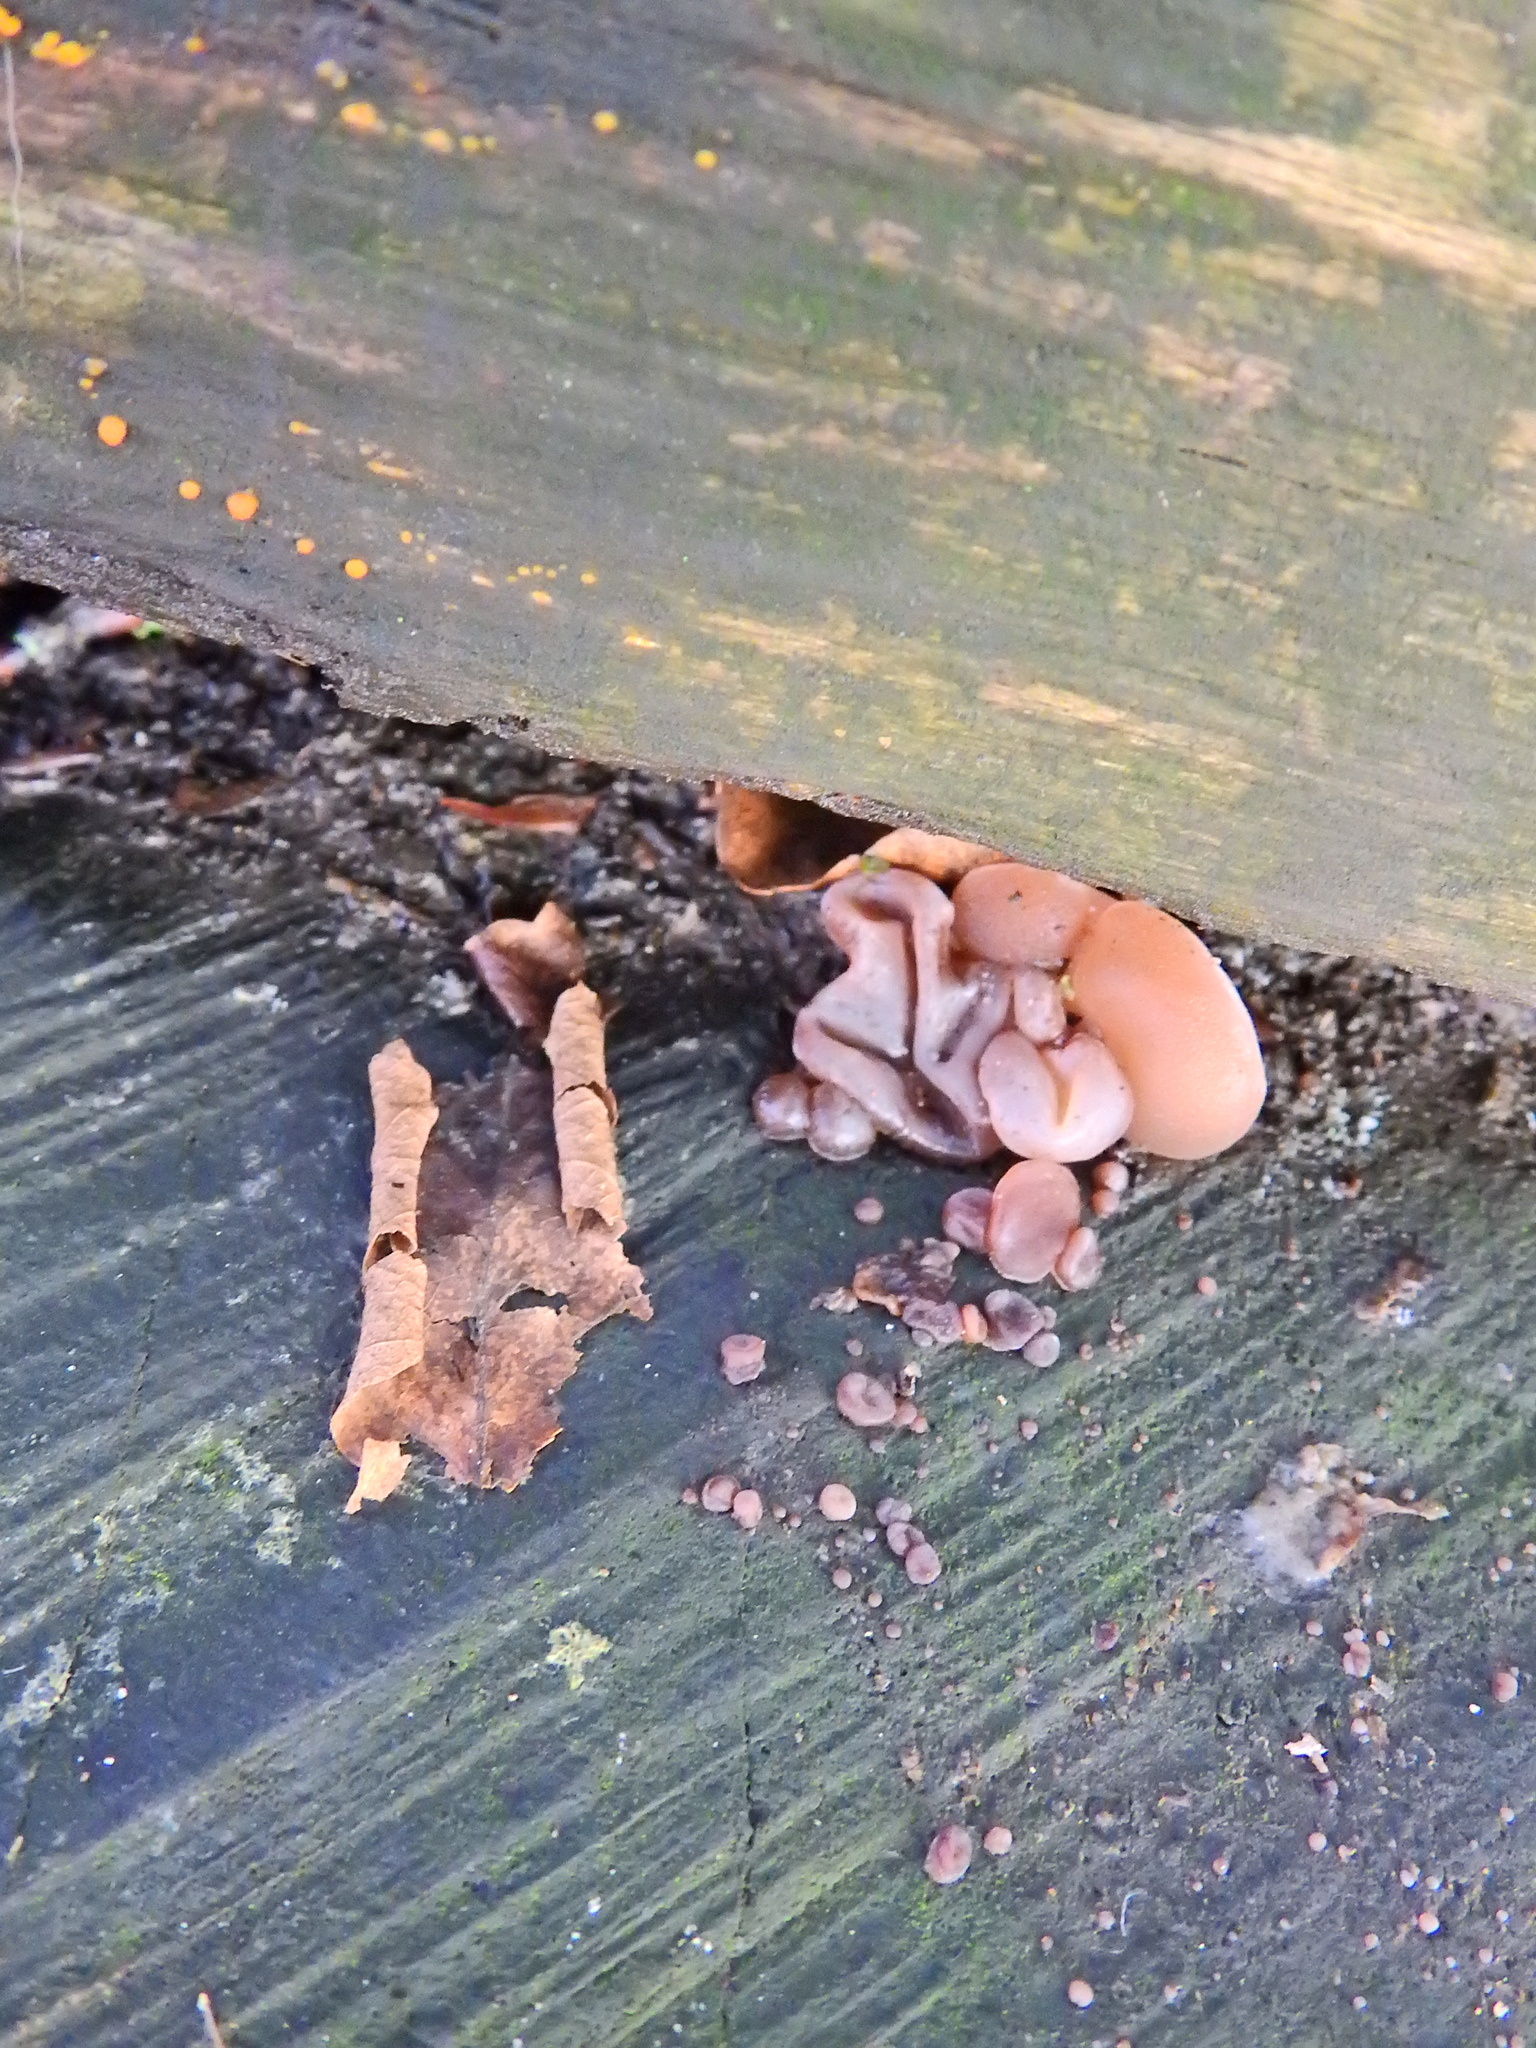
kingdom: Fungi
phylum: Basidiomycota
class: Agaricomycetes
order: Auriculariales
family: Auriculariaceae
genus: Auricularia
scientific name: Auricularia auricula-judae
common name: Jelly ear
